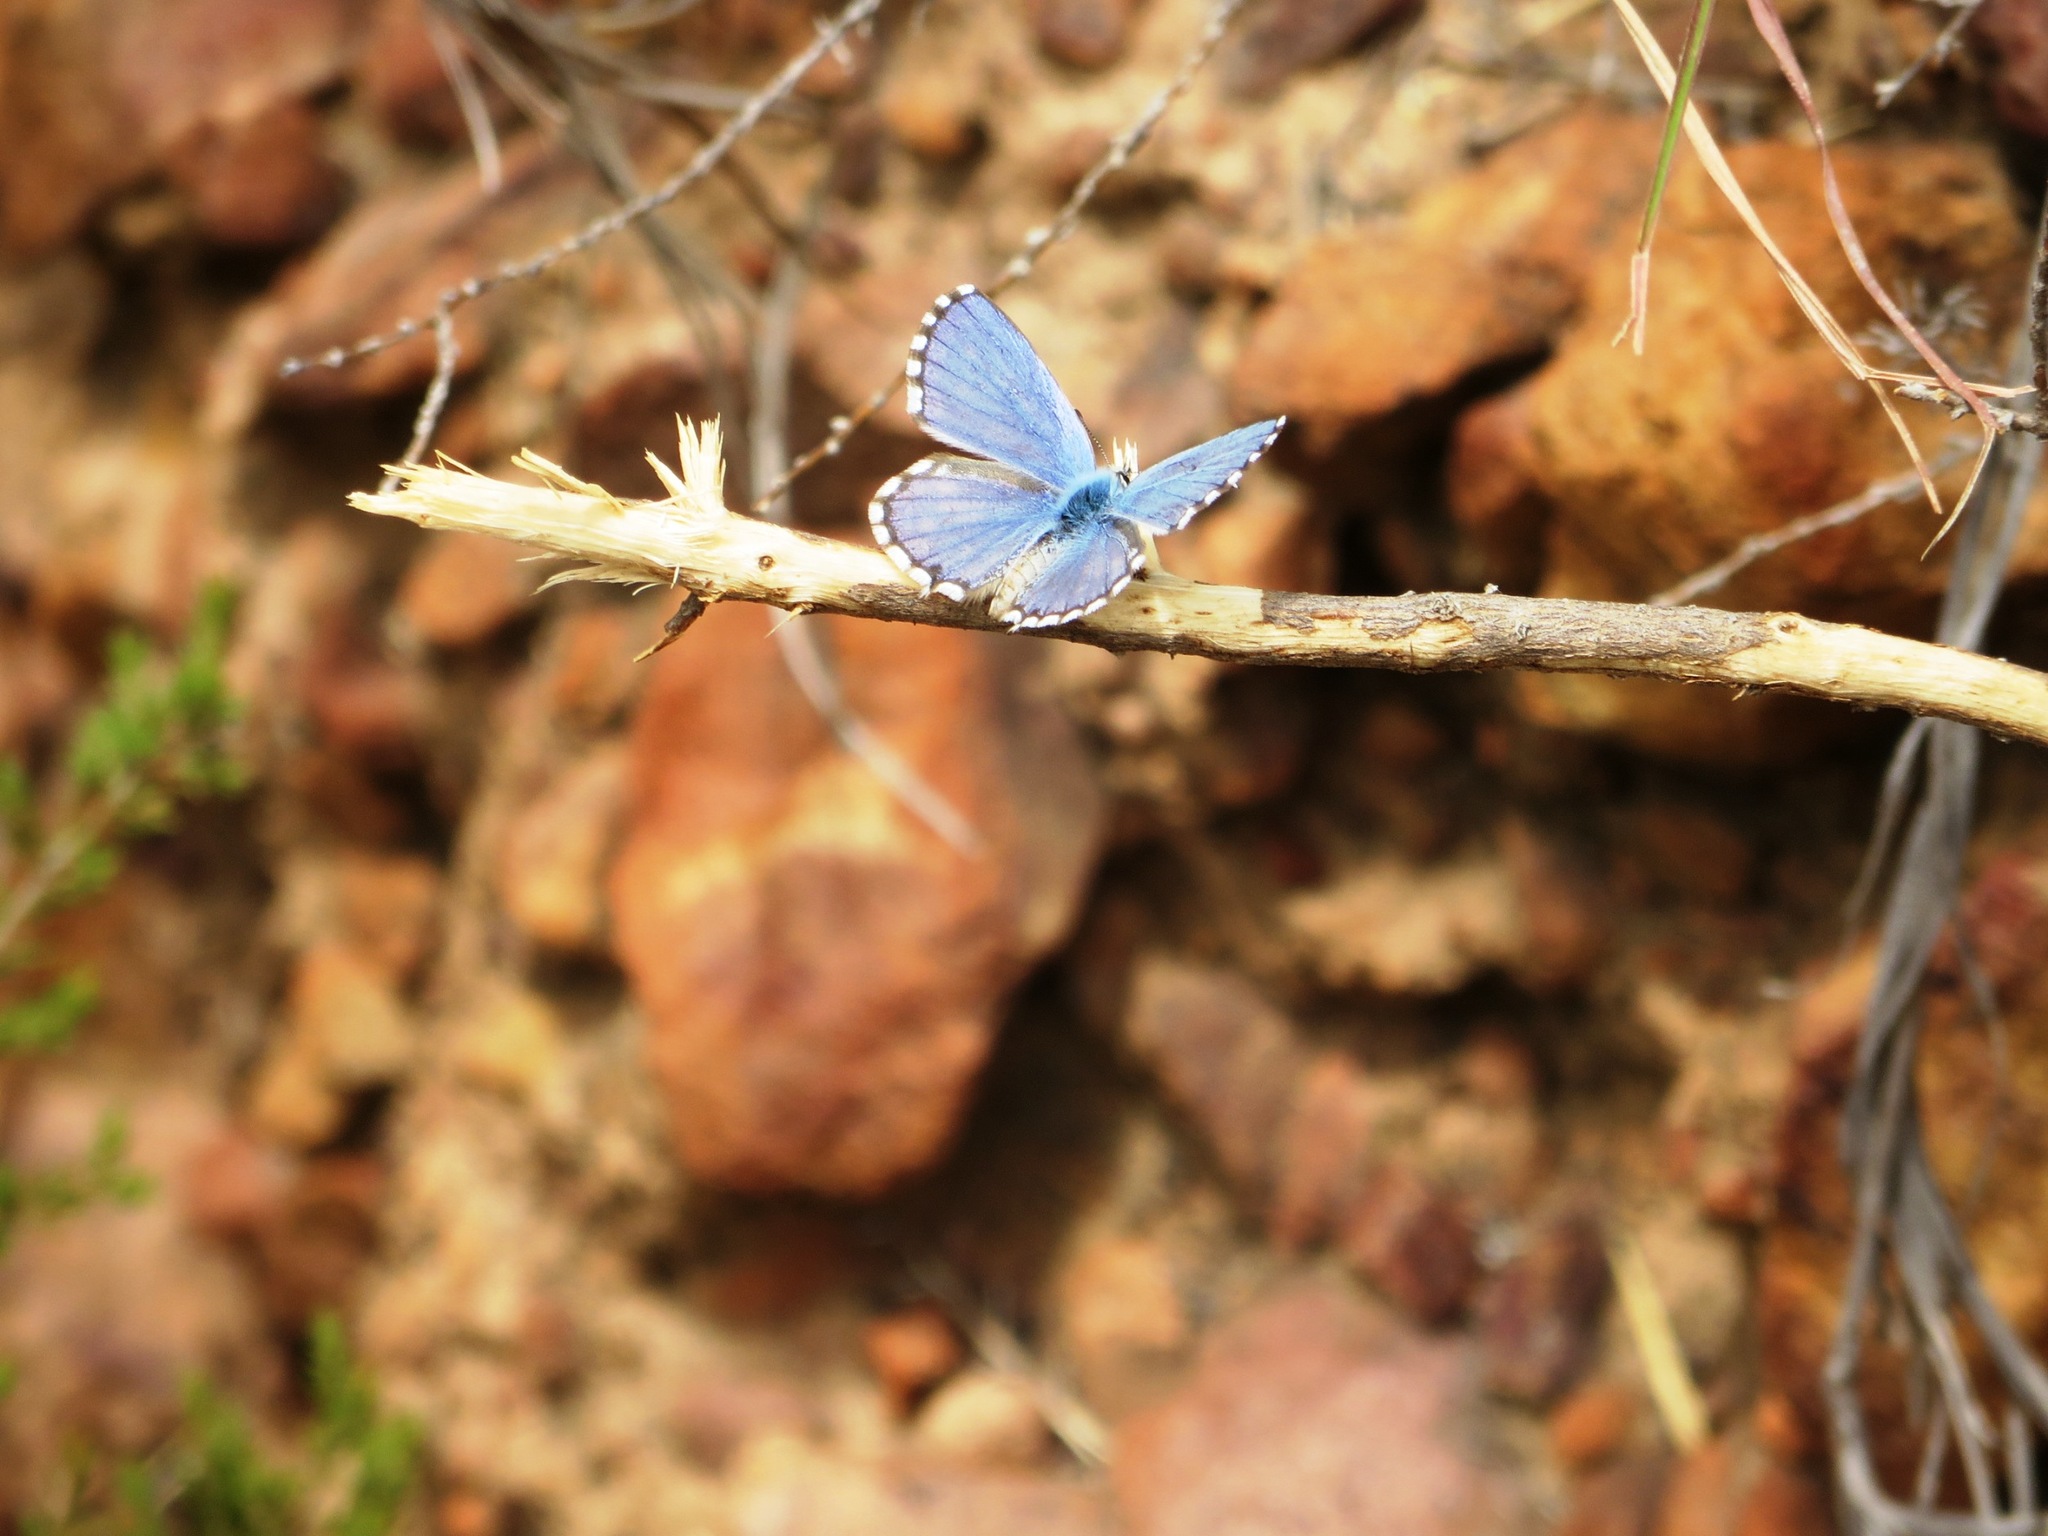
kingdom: Animalia
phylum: Arthropoda
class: Insecta
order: Lepidoptera
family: Lycaenidae
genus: Tarucus
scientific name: Tarucus thespis
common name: Vivid dotted blue
